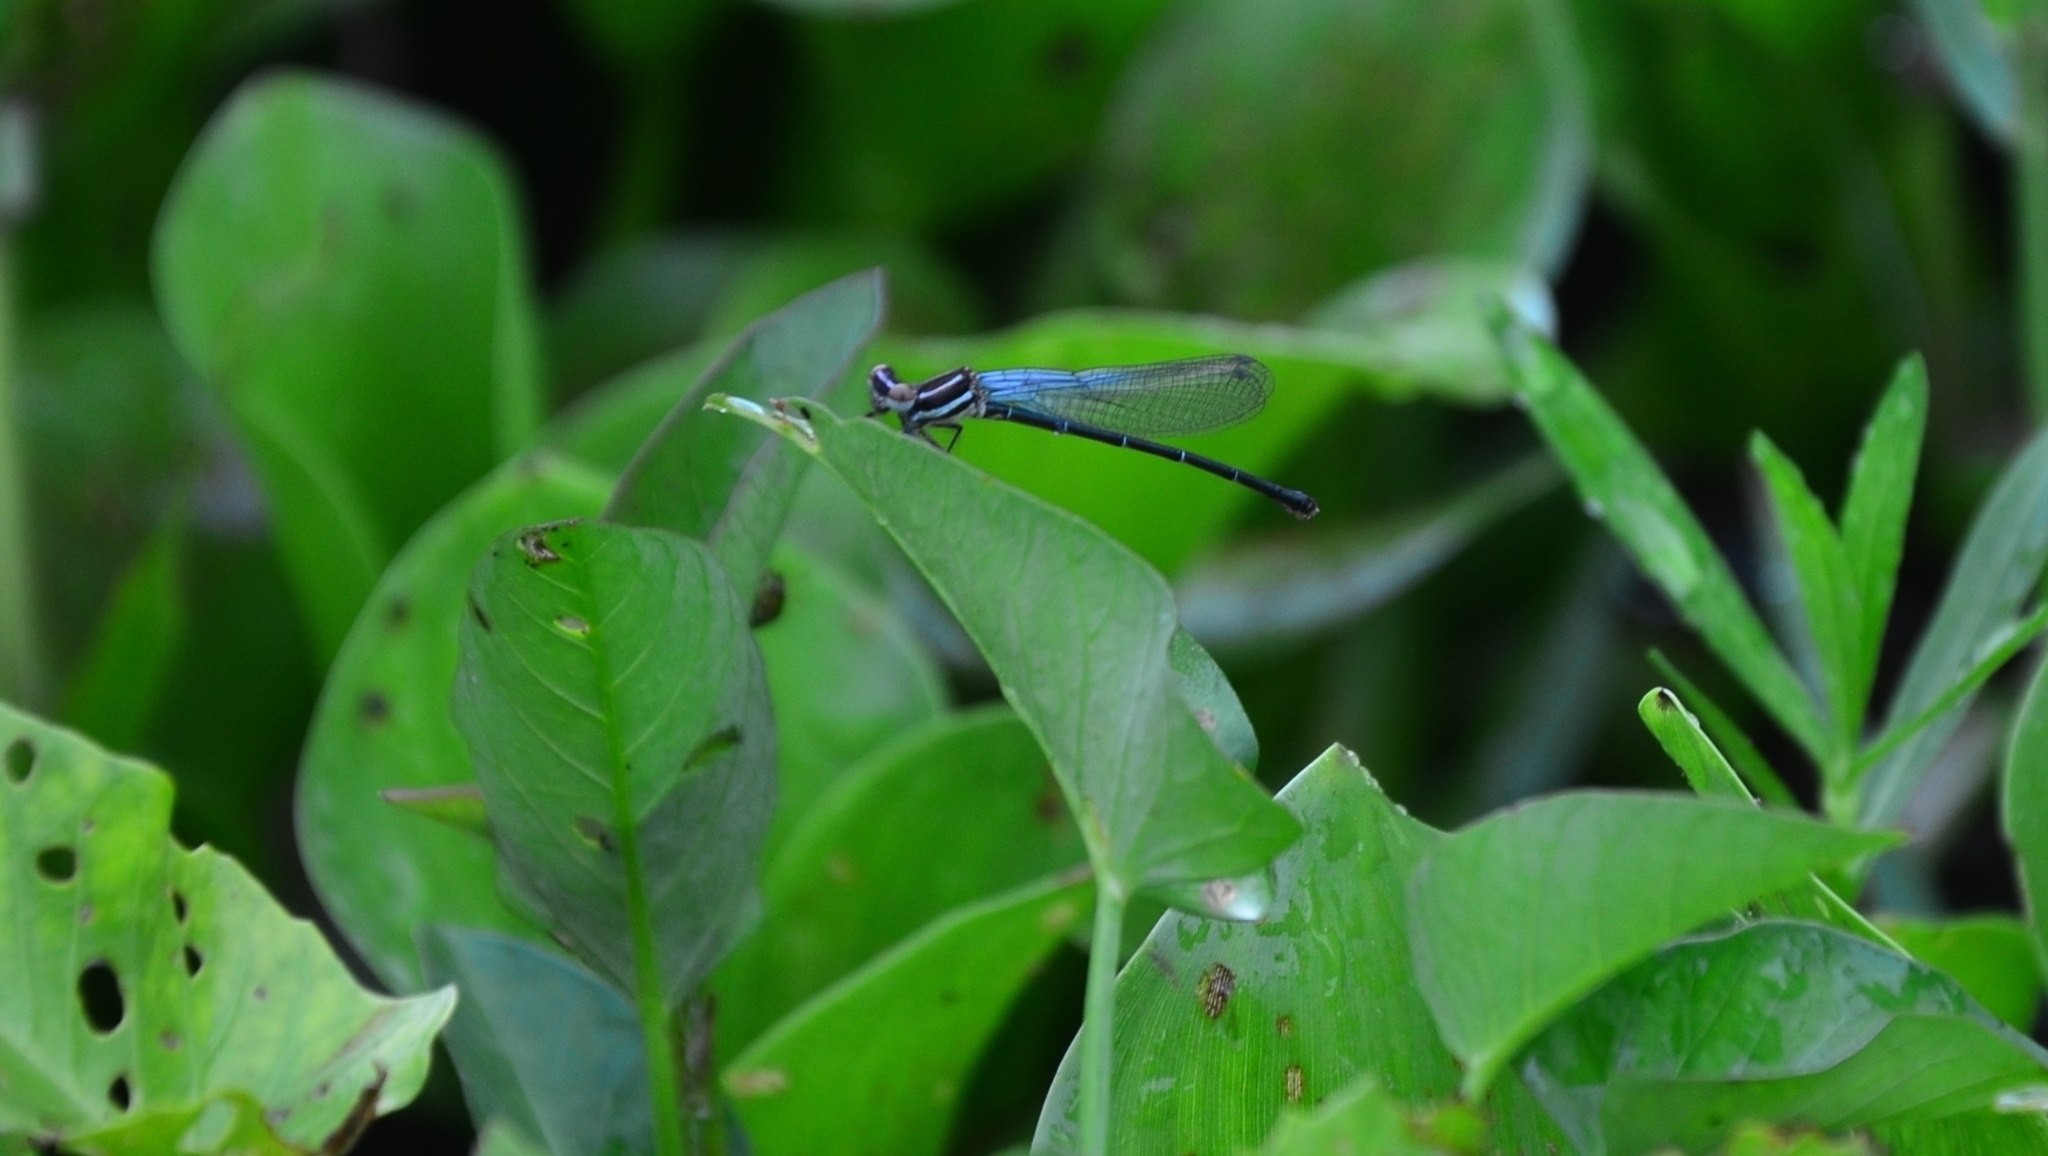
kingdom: Animalia
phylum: Arthropoda
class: Insecta
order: Odonata
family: Platycnemididae
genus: Onychargia
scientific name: Onychargia atrocyana
